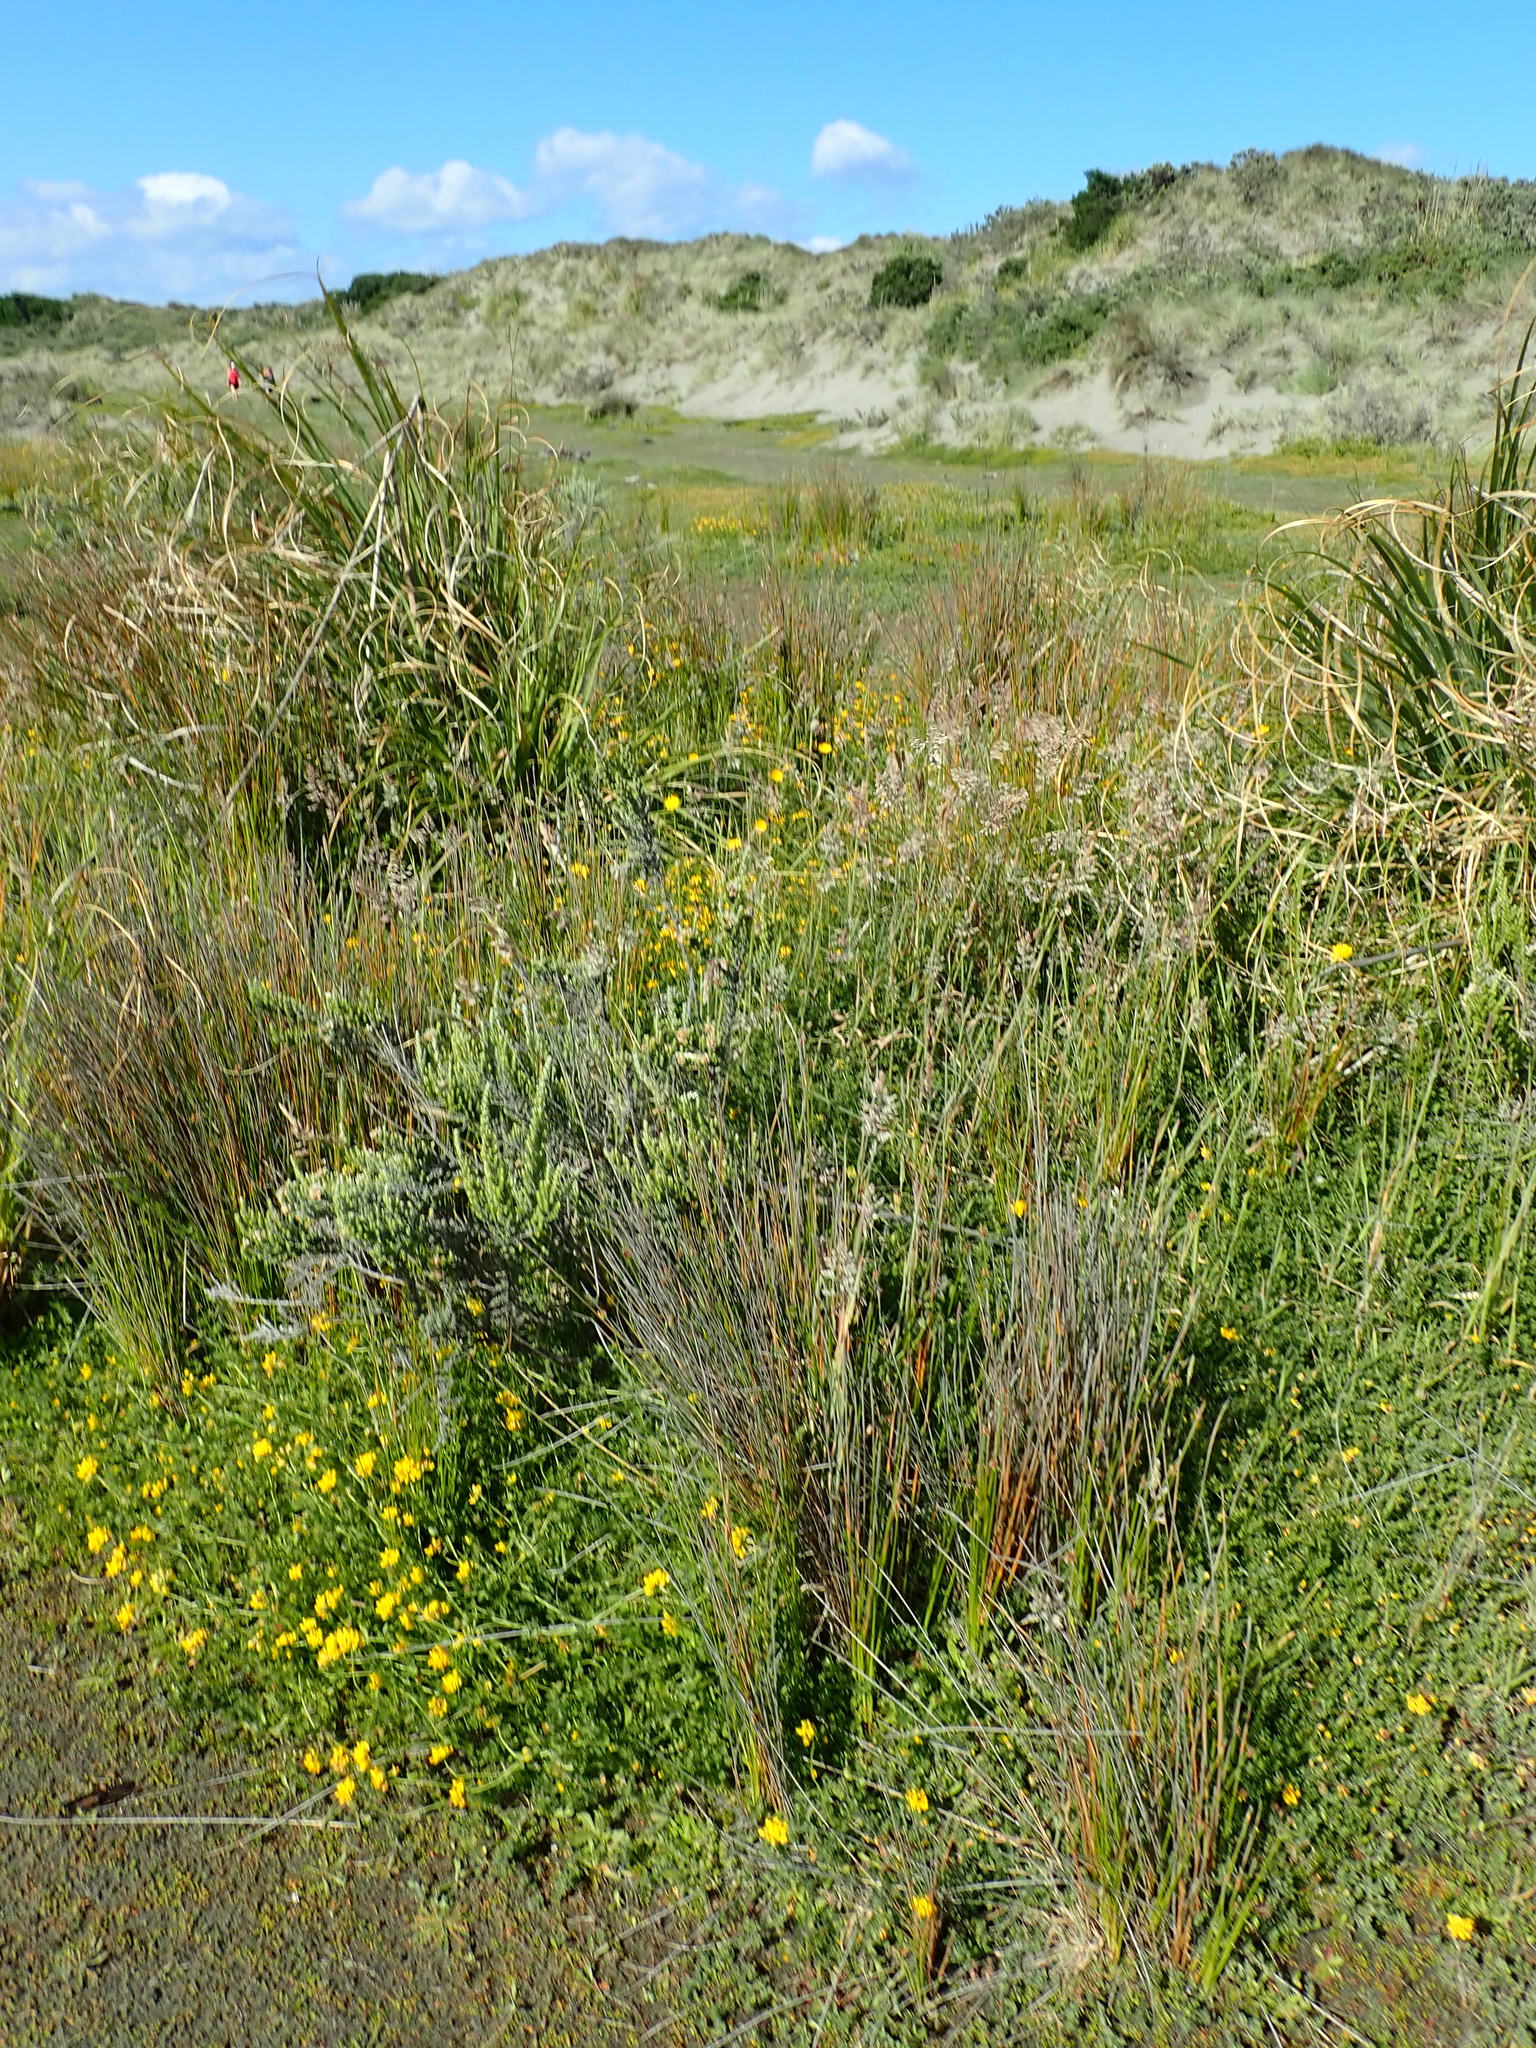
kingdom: Plantae
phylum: Tracheophyta
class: Magnoliopsida
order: Asterales
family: Asteraceae
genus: Ozothamnus
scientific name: Ozothamnus leptophyllus
